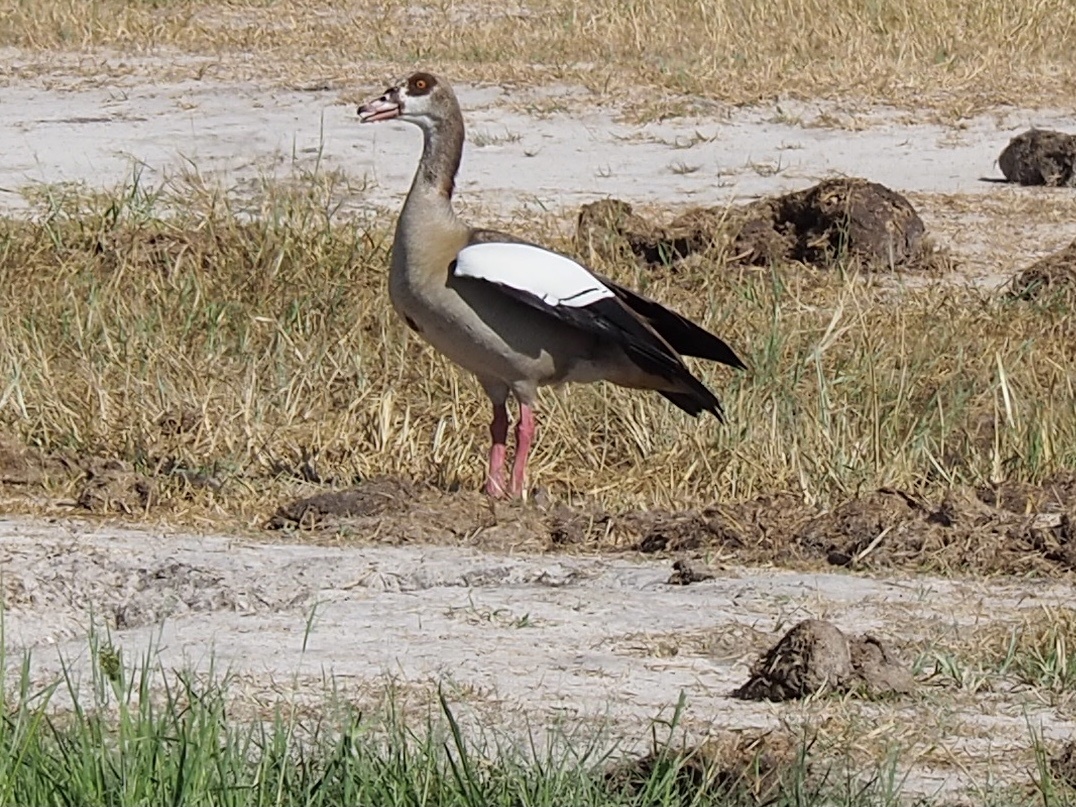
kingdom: Animalia
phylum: Chordata
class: Aves
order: Anseriformes
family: Anatidae
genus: Alopochen
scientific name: Alopochen aegyptiaca
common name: Egyptian goose
